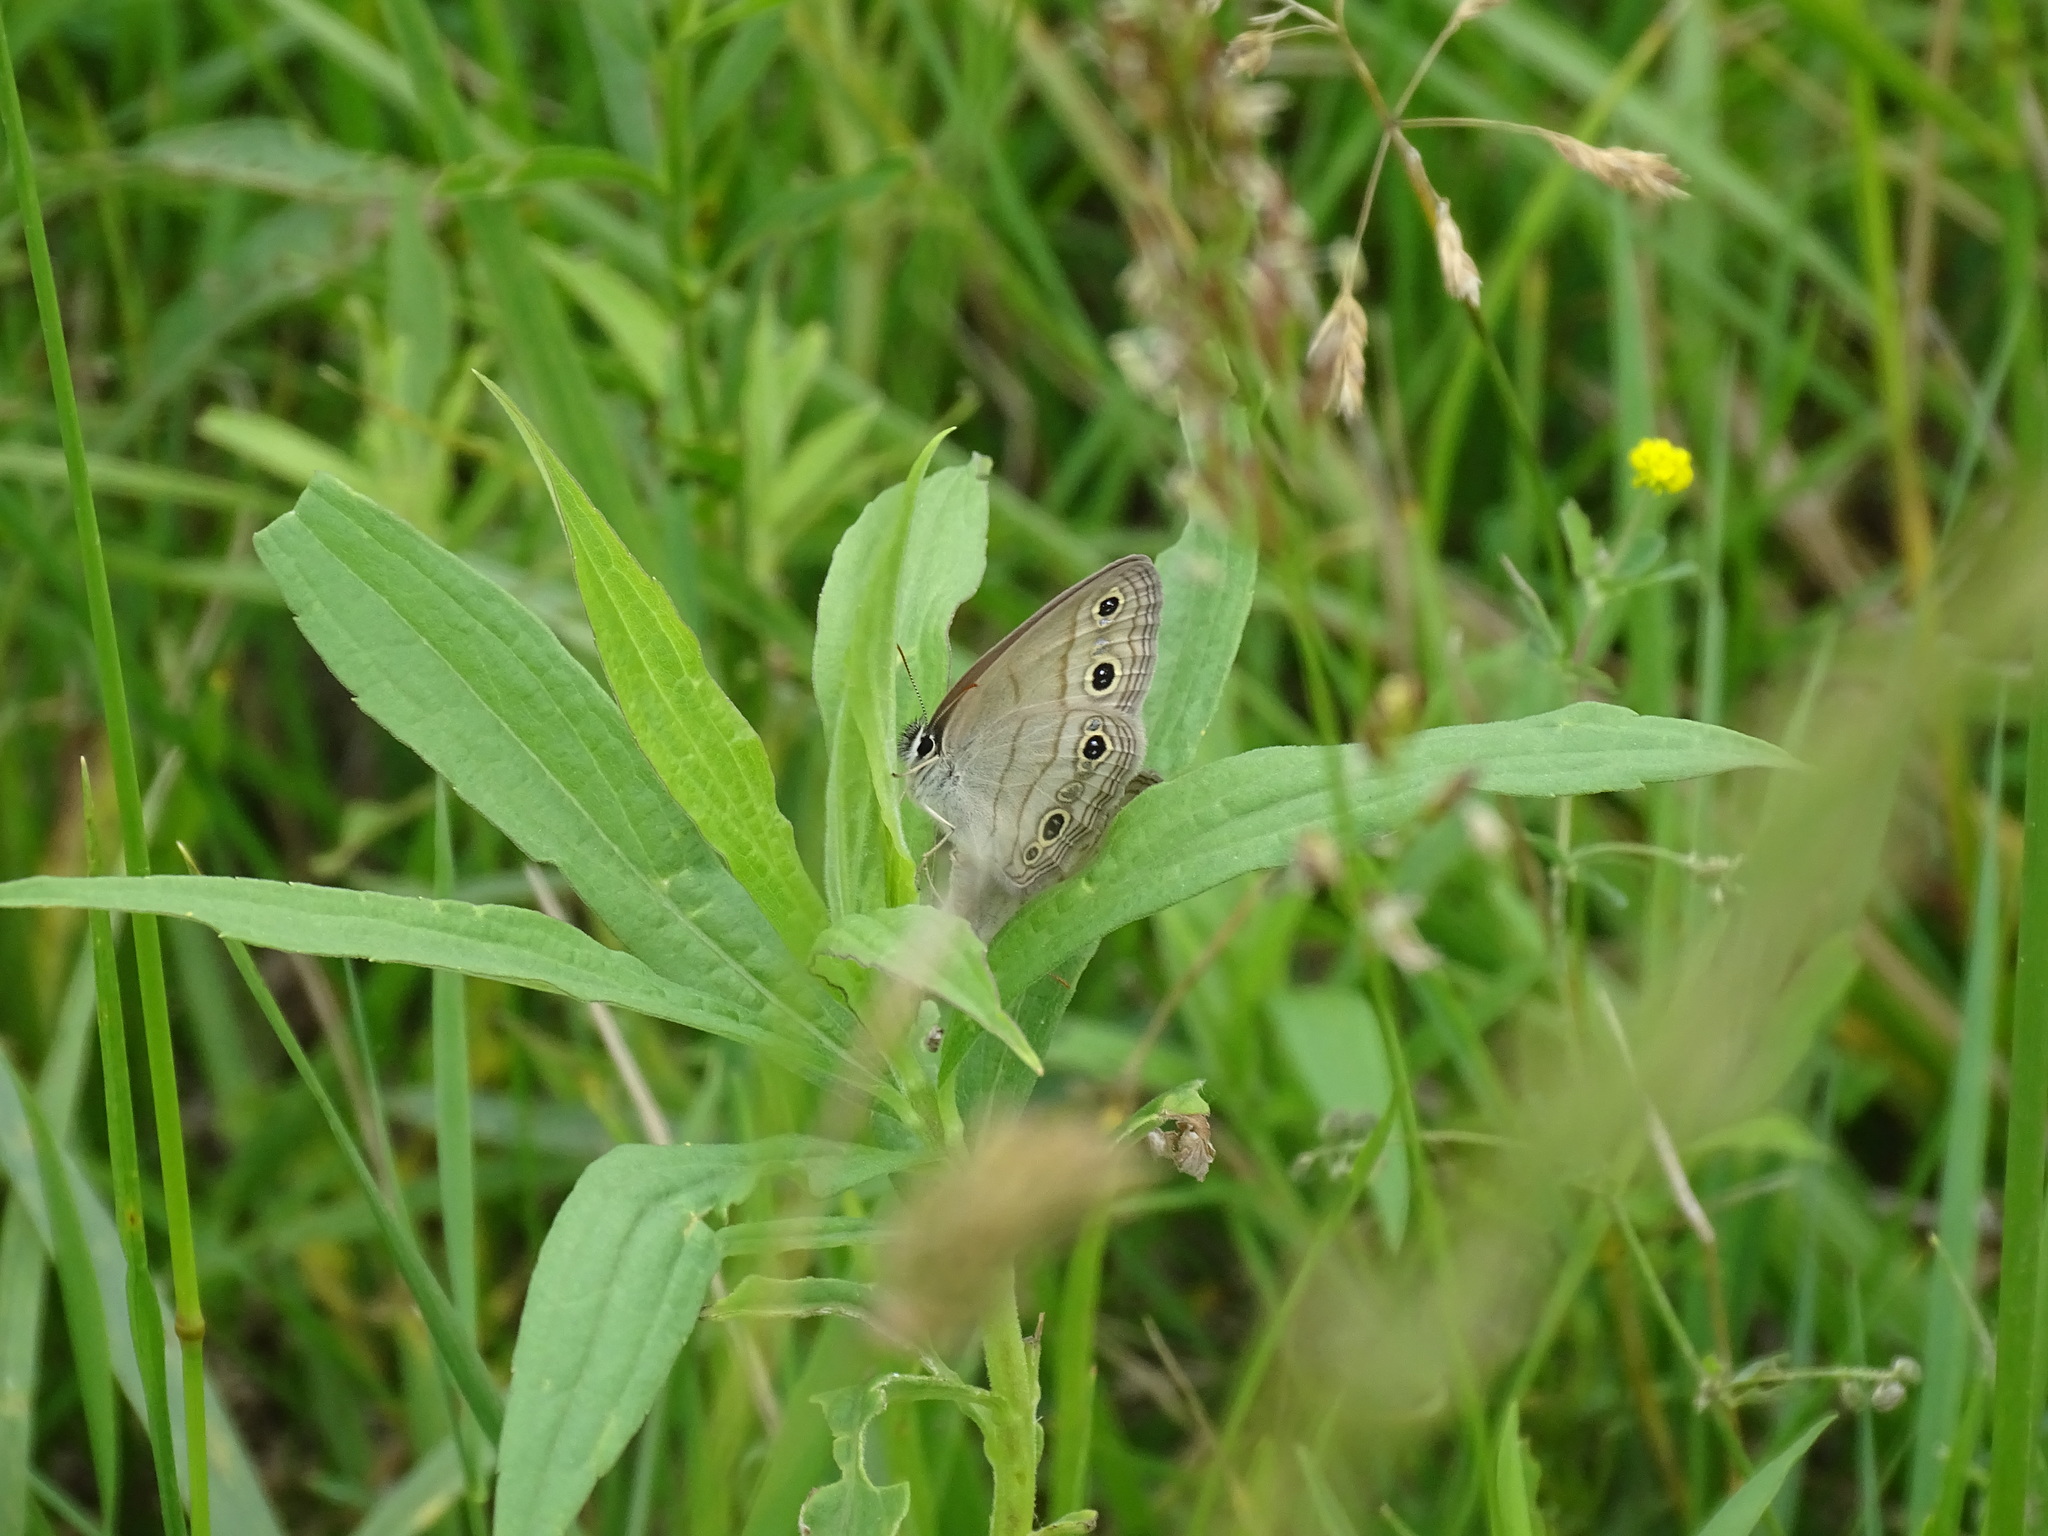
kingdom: Animalia
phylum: Arthropoda
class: Insecta
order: Lepidoptera
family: Nymphalidae
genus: Euptychia
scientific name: Euptychia cymela
